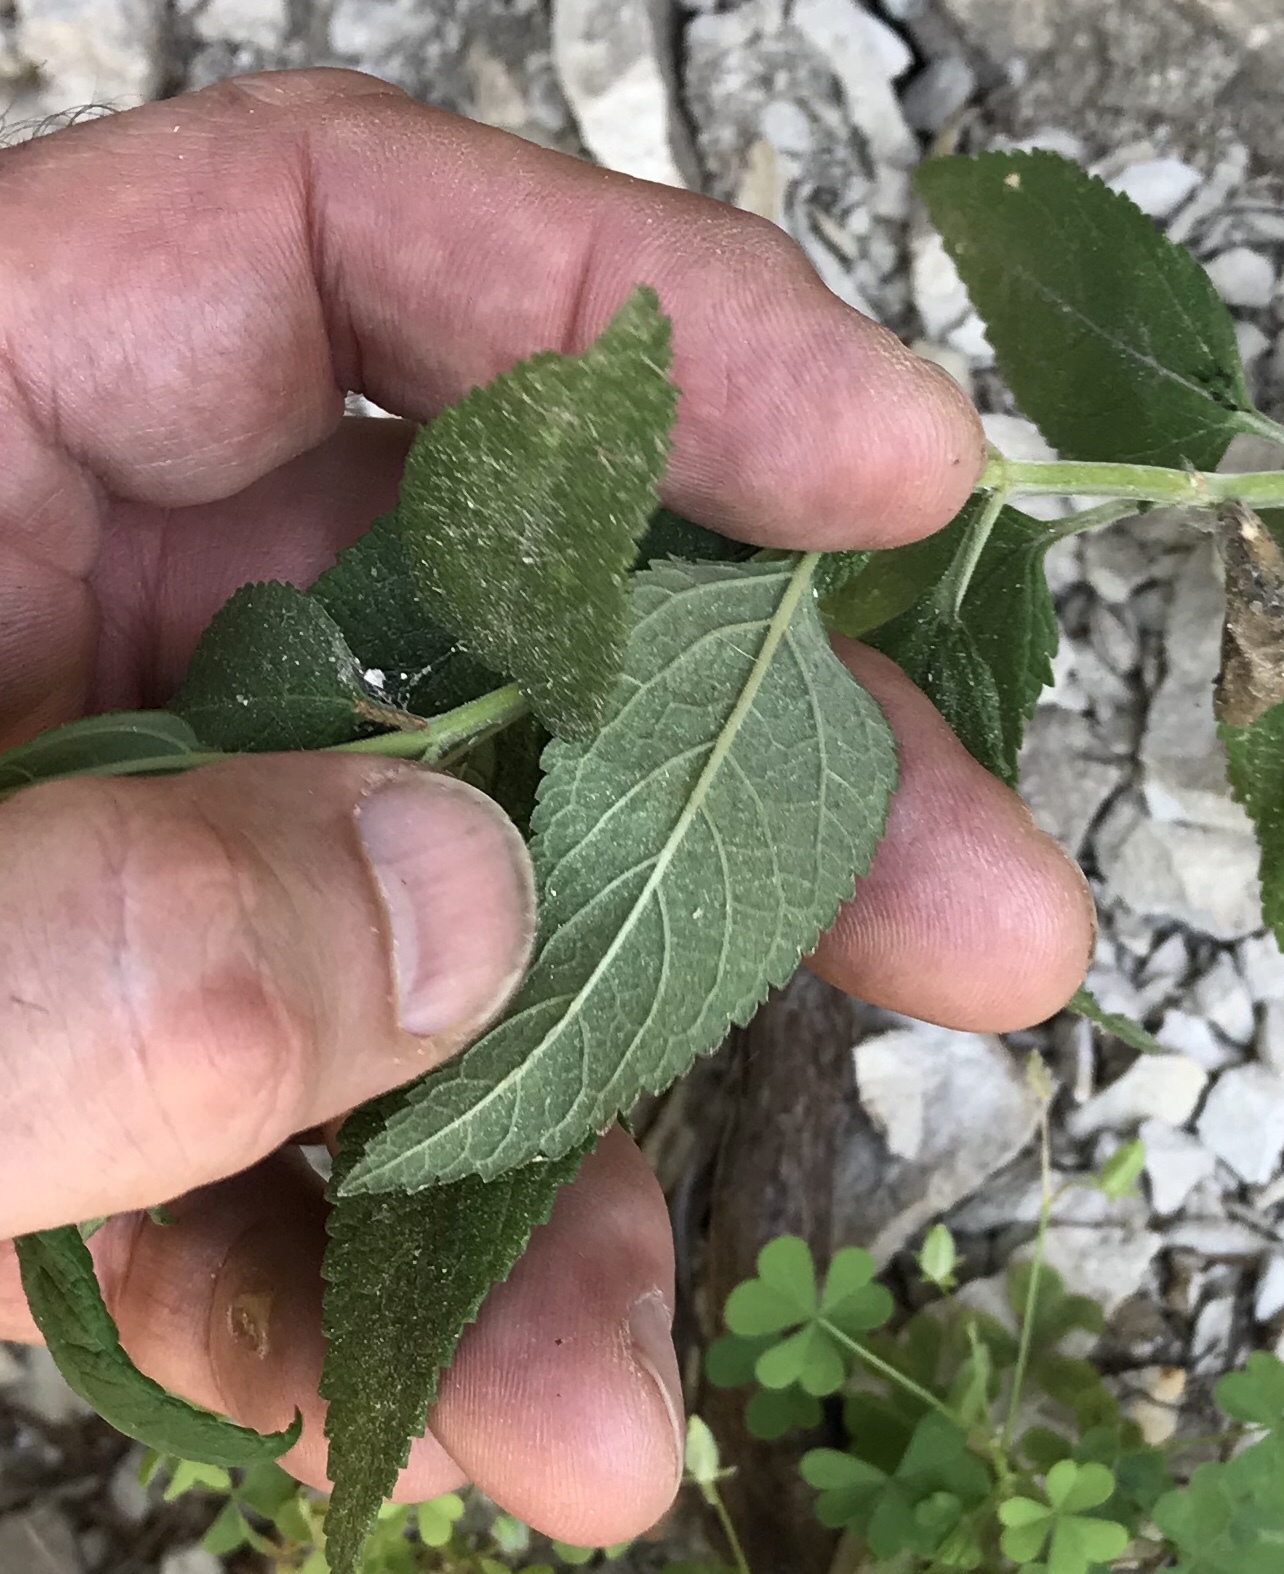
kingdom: Plantae
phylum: Tracheophyta
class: Magnoliopsida
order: Lamiales
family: Lamiaceae
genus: Teucrium
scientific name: Teucrium canadense
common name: American germander
